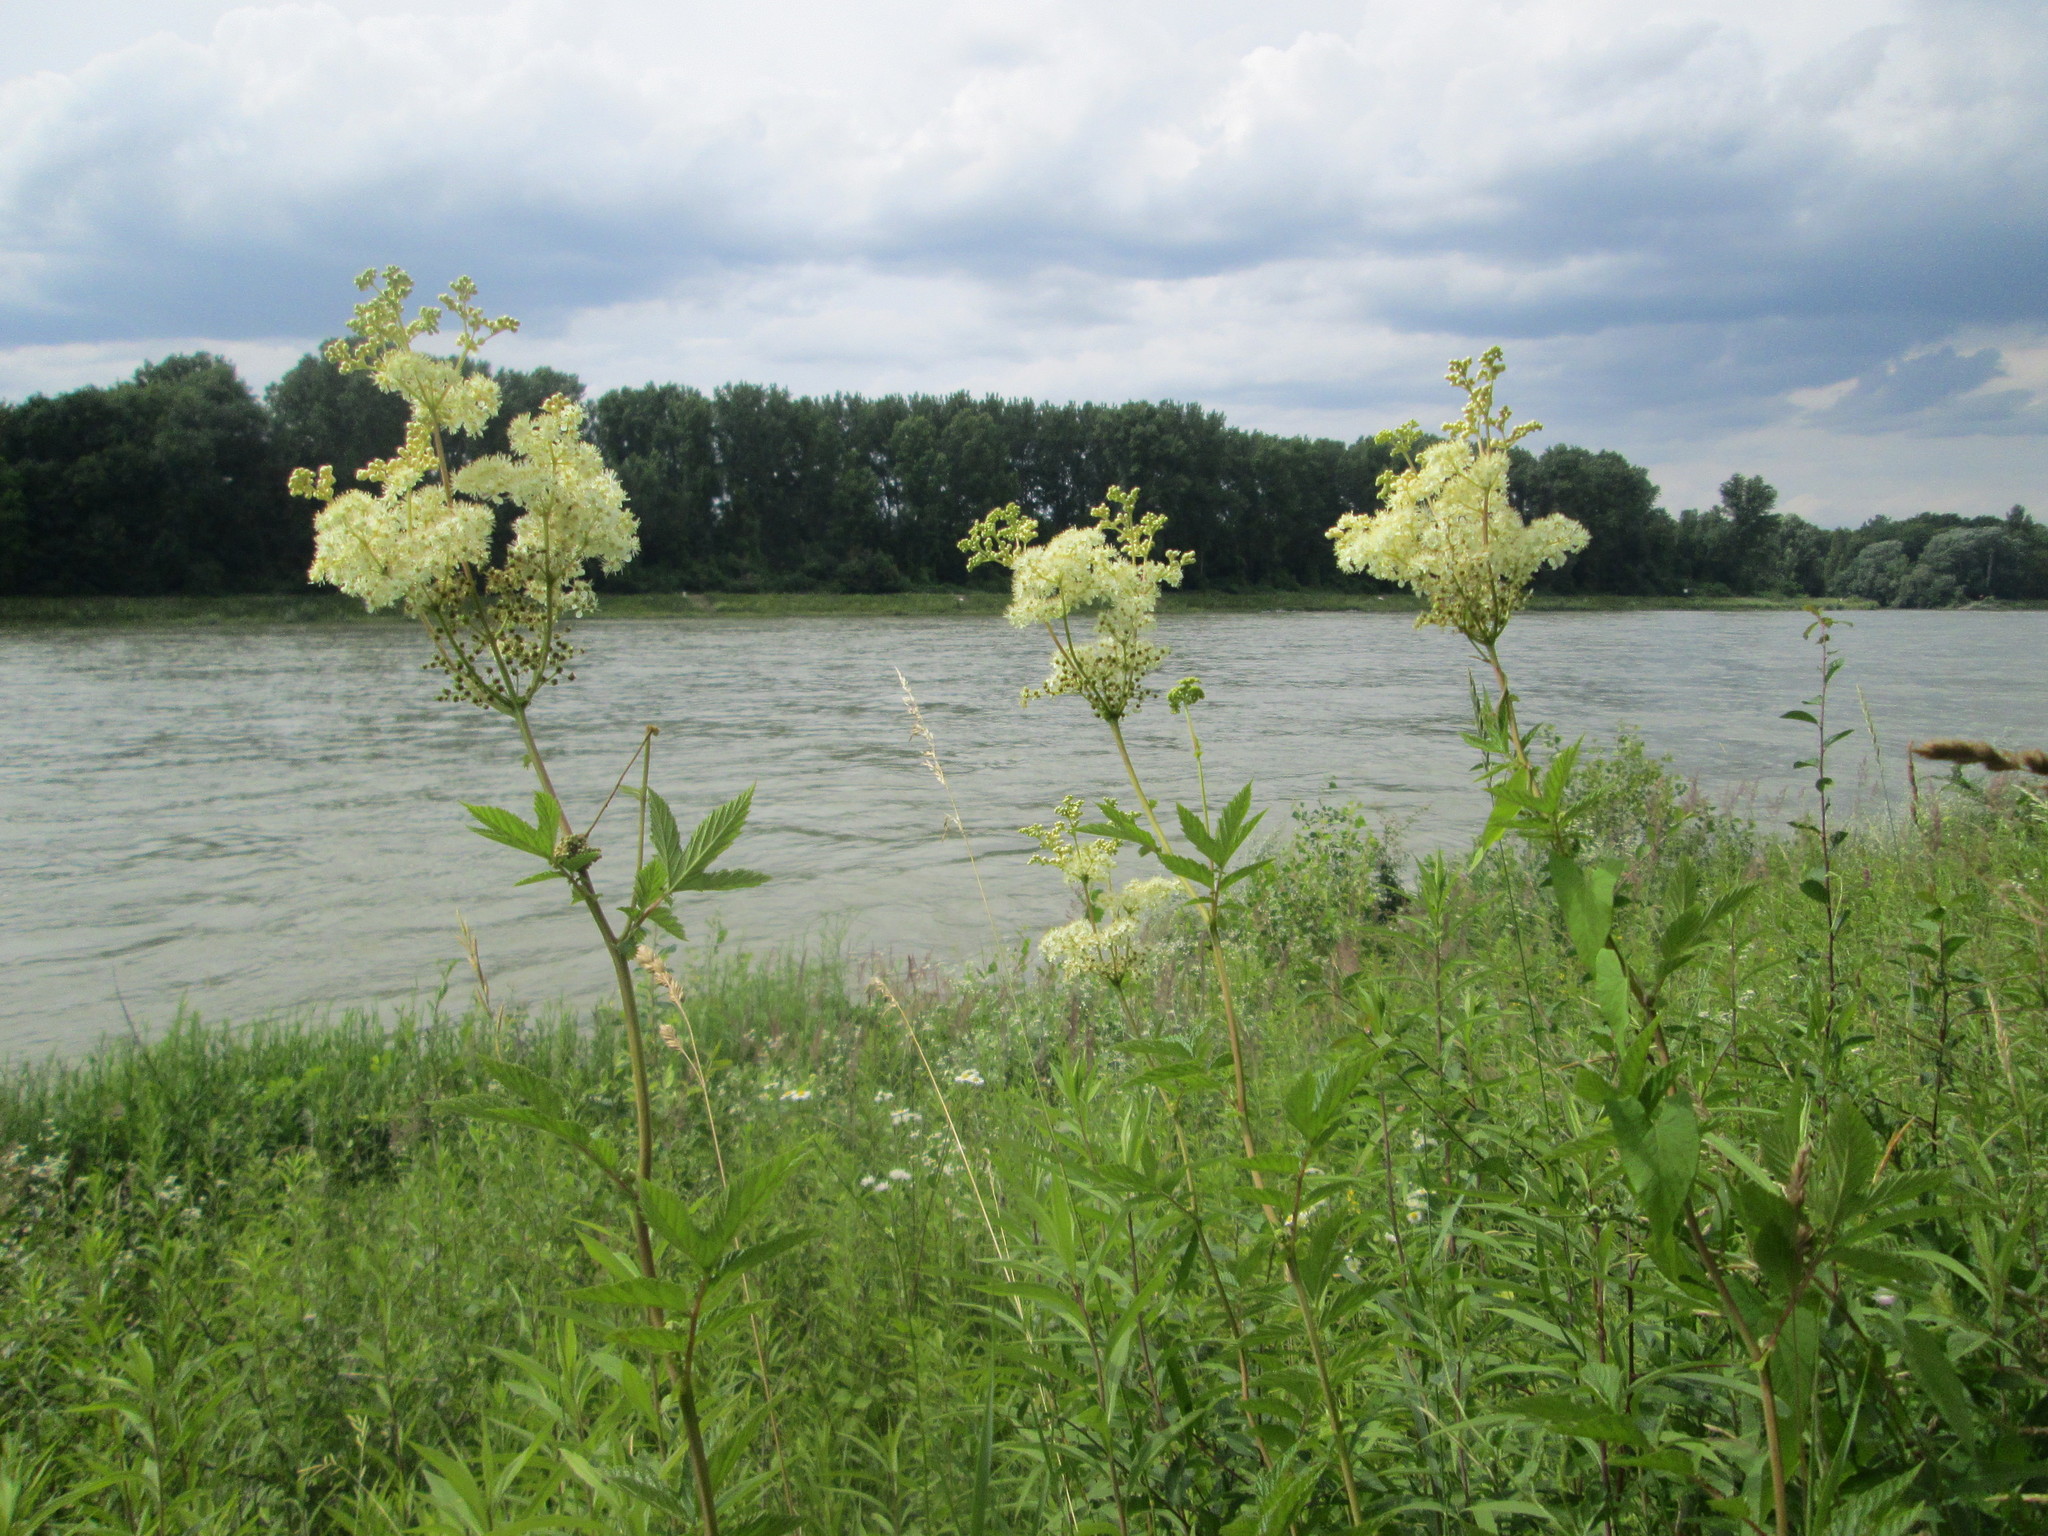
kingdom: Plantae
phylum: Tracheophyta
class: Magnoliopsida
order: Rosales
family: Rosaceae
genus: Filipendula
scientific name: Filipendula ulmaria
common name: Meadowsweet
